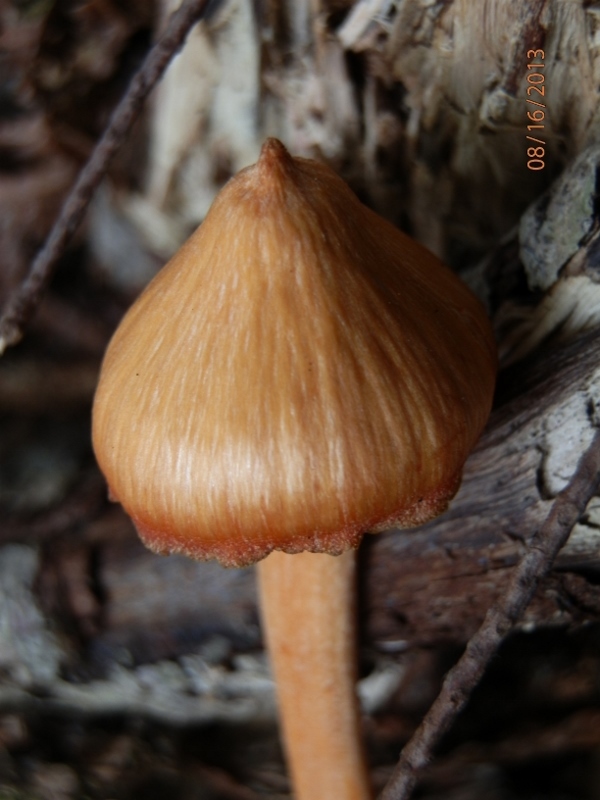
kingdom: Fungi
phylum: Basidiomycota
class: Agaricomycetes
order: Agaricales
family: Entolomataceae
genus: Entoloma
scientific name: Entoloma quadratum
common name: Salmon pinkgill
